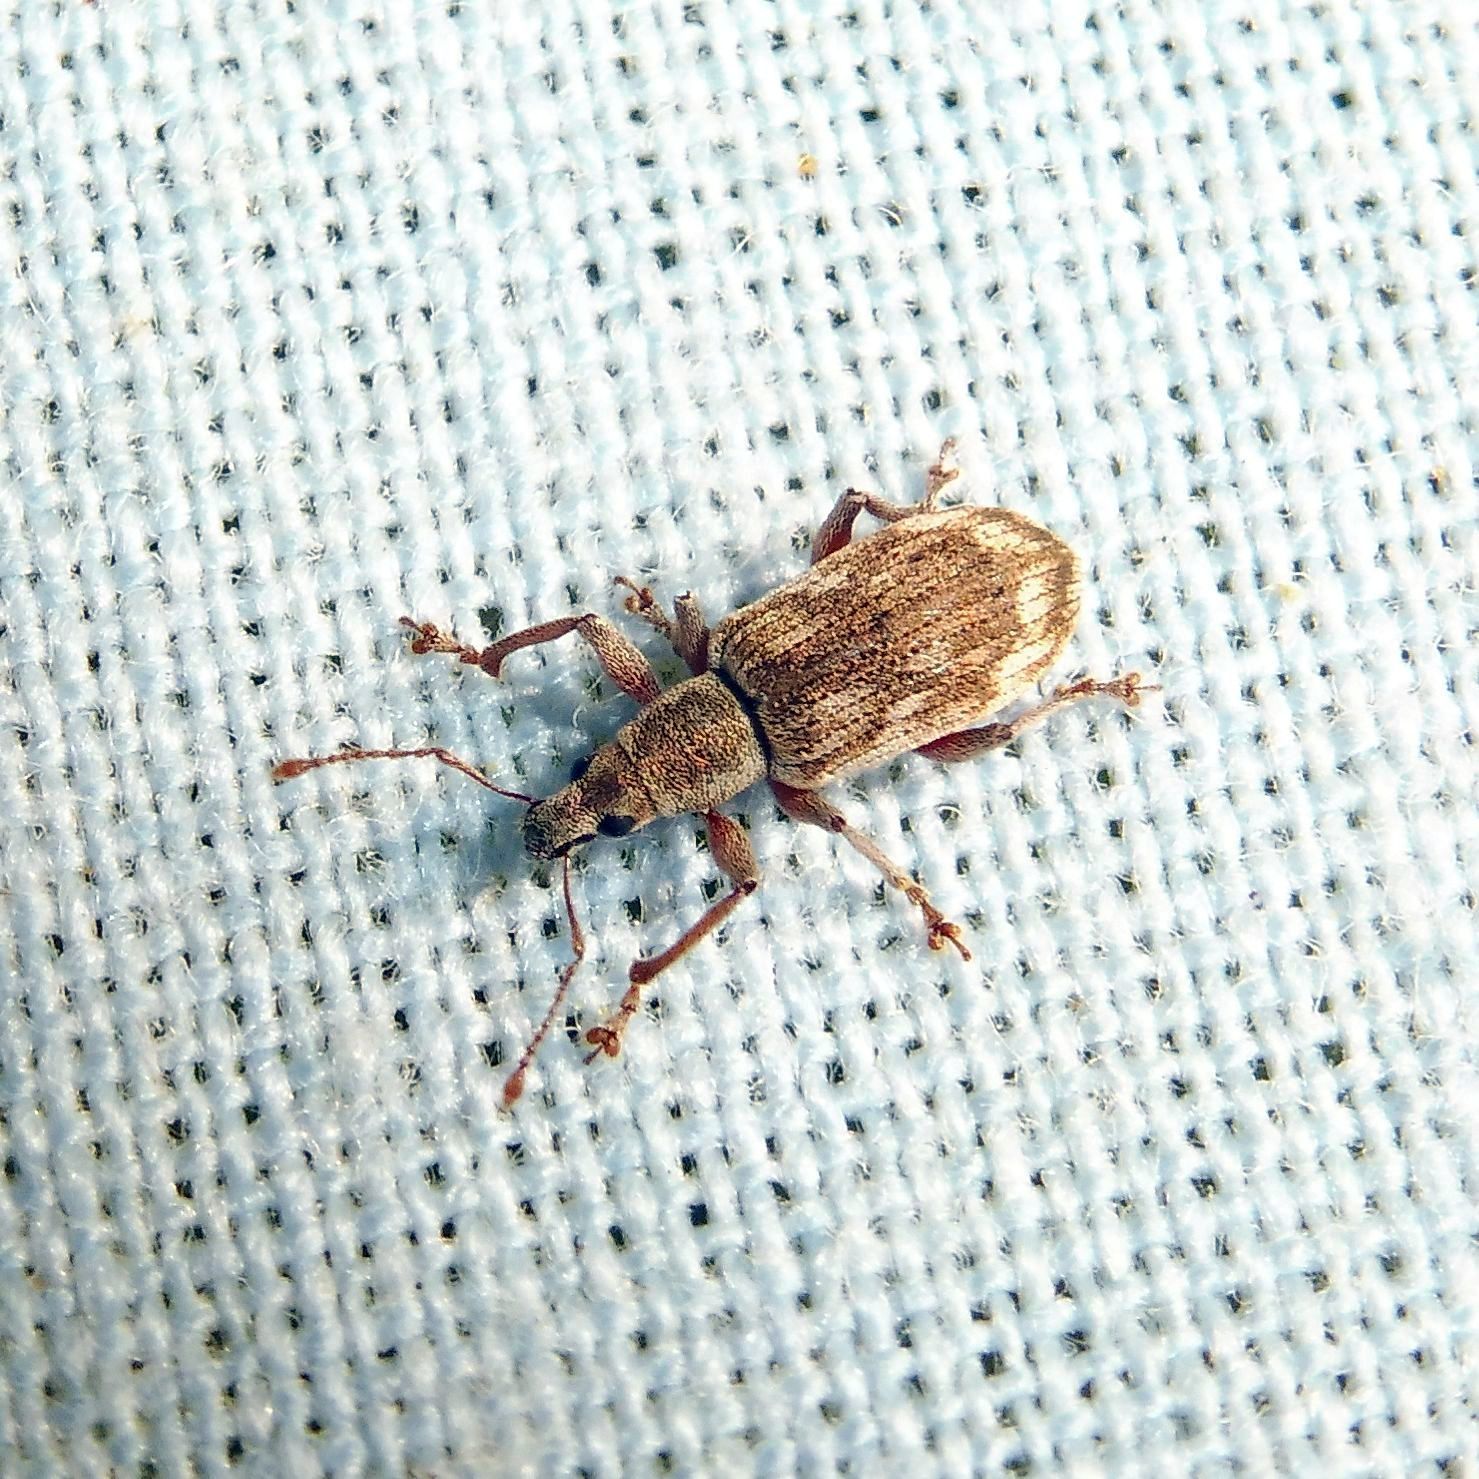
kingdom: Animalia
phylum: Arthropoda
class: Insecta
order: Coleoptera
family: Curculionidae
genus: Polydrusus
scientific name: Polydrusus tereticollis
